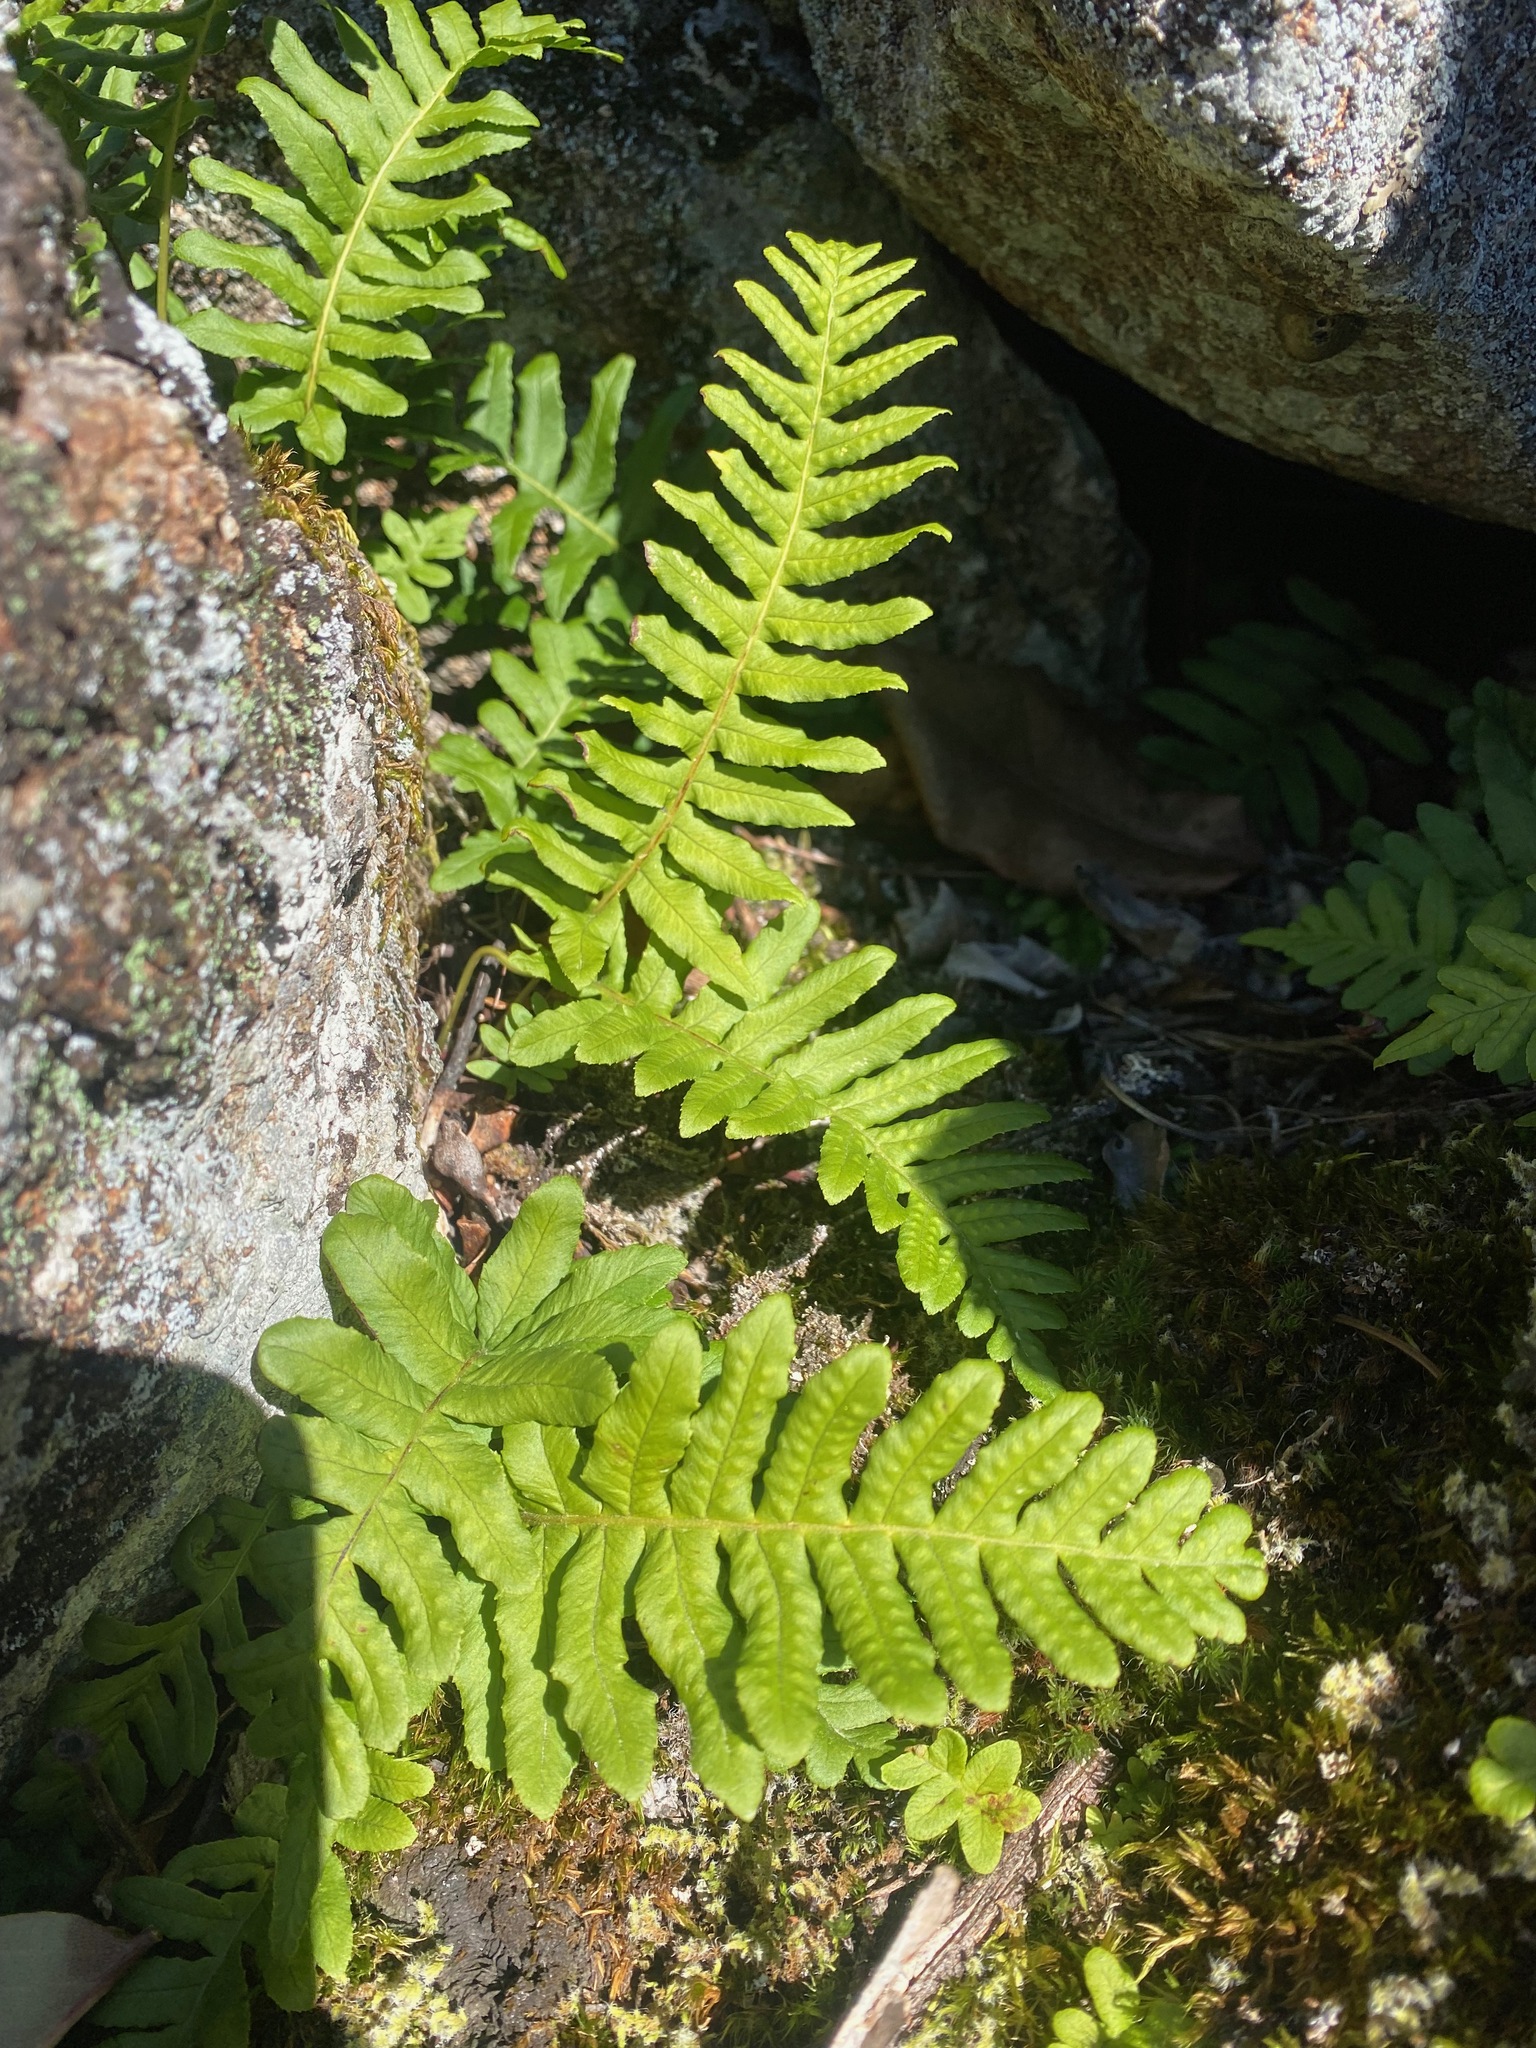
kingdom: Plantae
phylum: Tracheophyta
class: Polypodiopsida
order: Polypodiales
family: Polypodiaceae
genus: Polypodium
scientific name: Polypodium glycyrrhiza
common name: Licorice fern
